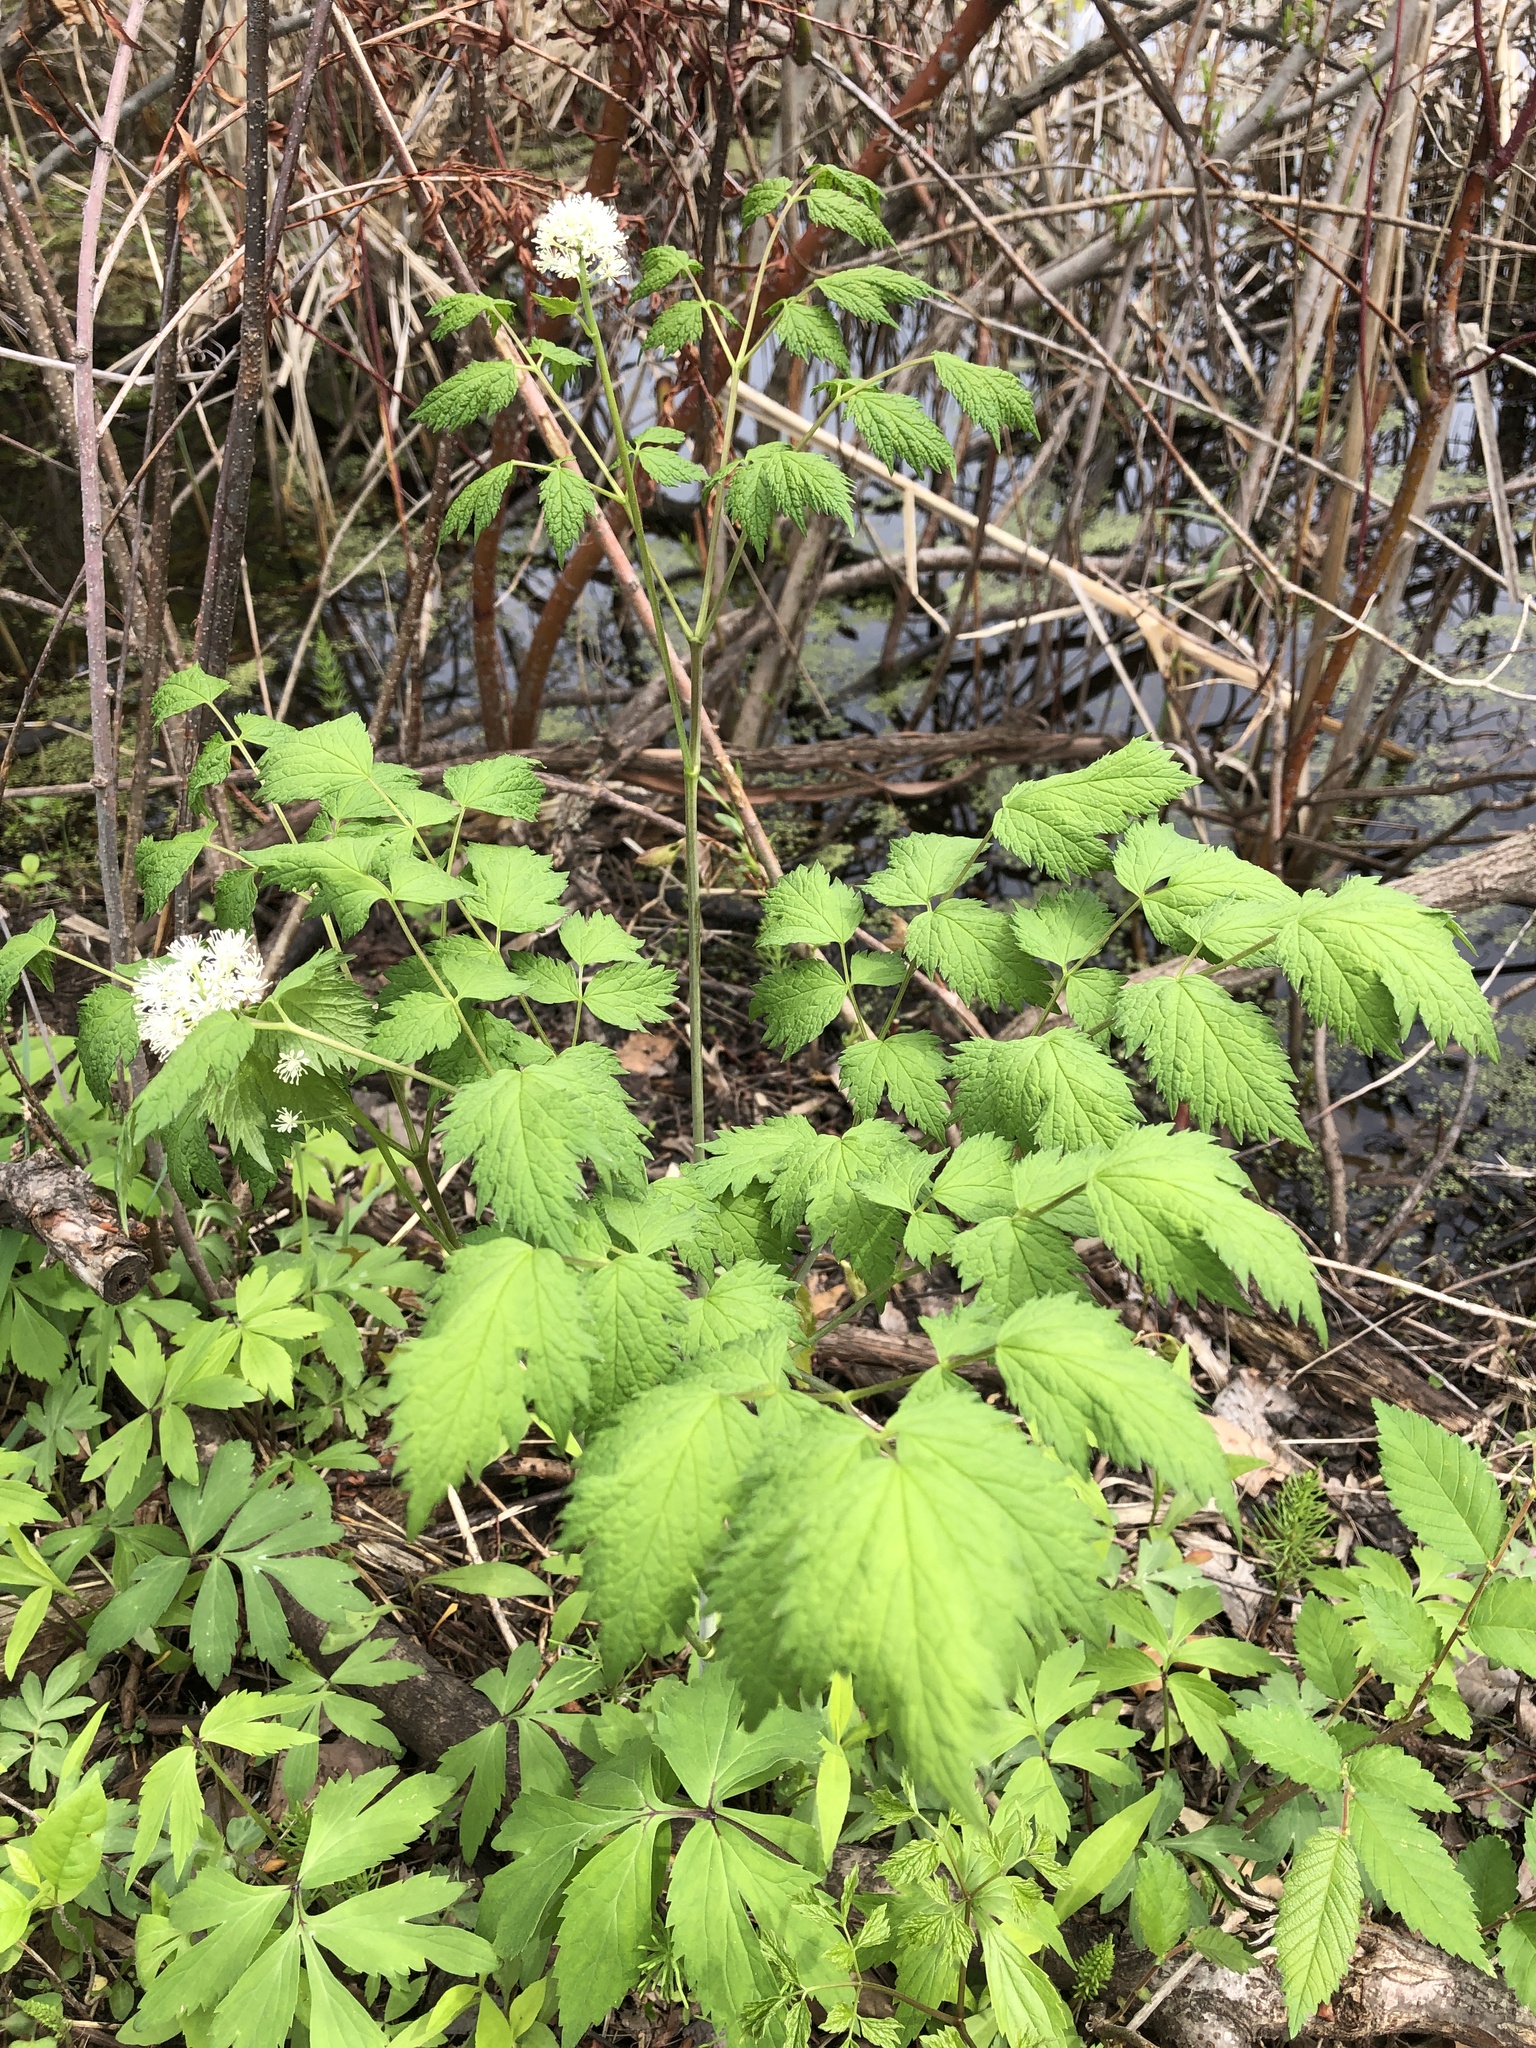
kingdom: Plantae
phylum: Tracheophyta
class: Magnoliopsida
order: Ranunculales
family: Ranunculaceae
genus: Actaea
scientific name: Actaea rubra
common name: Red baneberry
